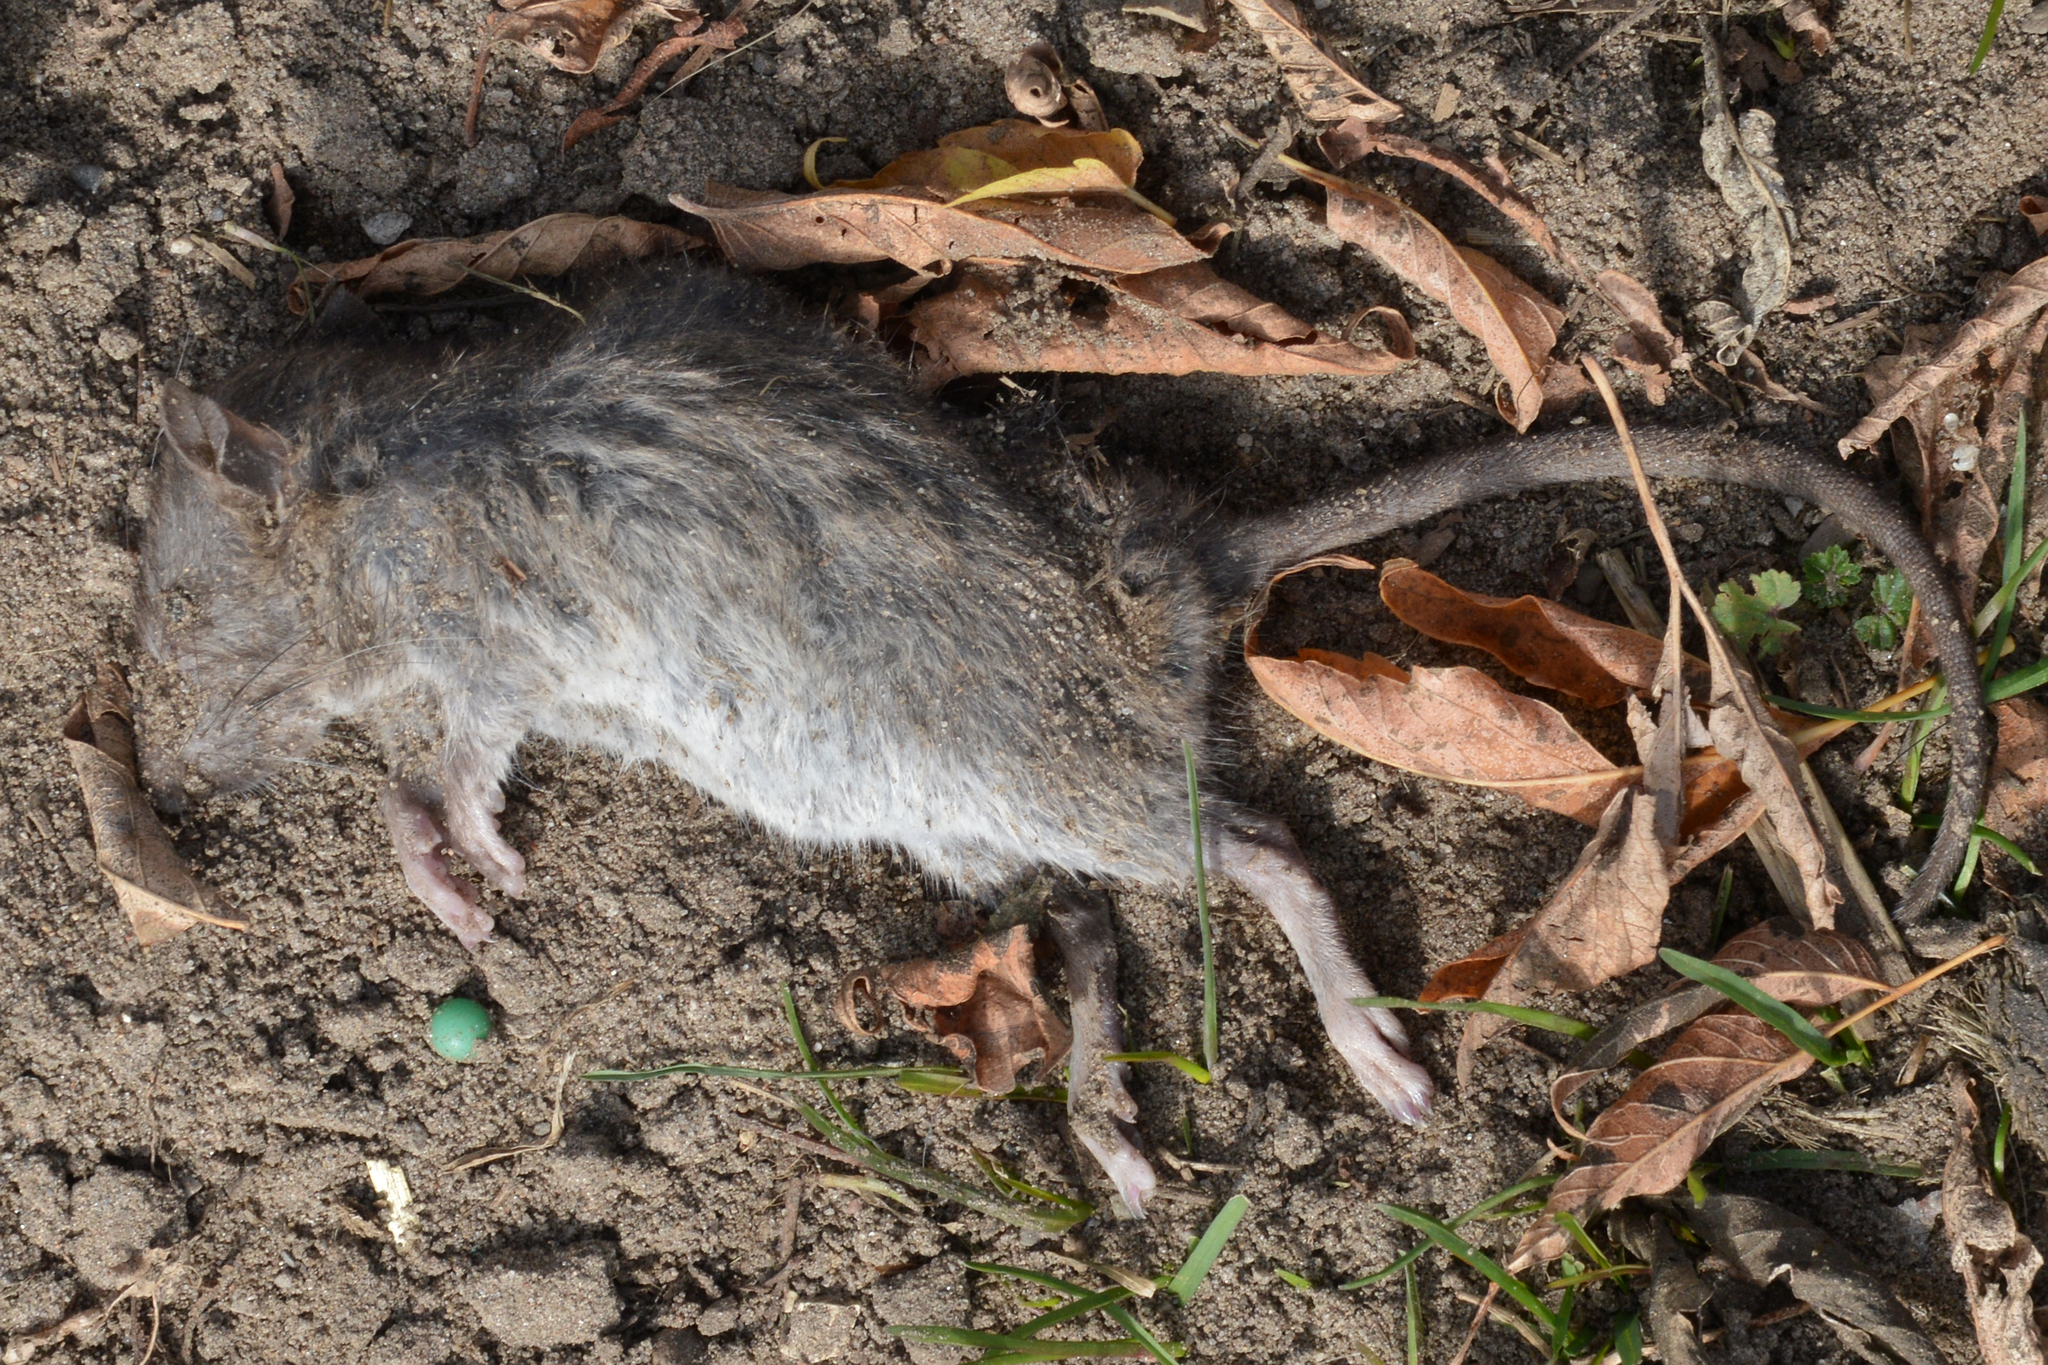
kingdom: Animalia
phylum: Chordata
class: Mammalia
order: Rodentia
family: Muridae
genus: Rattus
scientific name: Rattus norvegicus
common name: Brown rat
